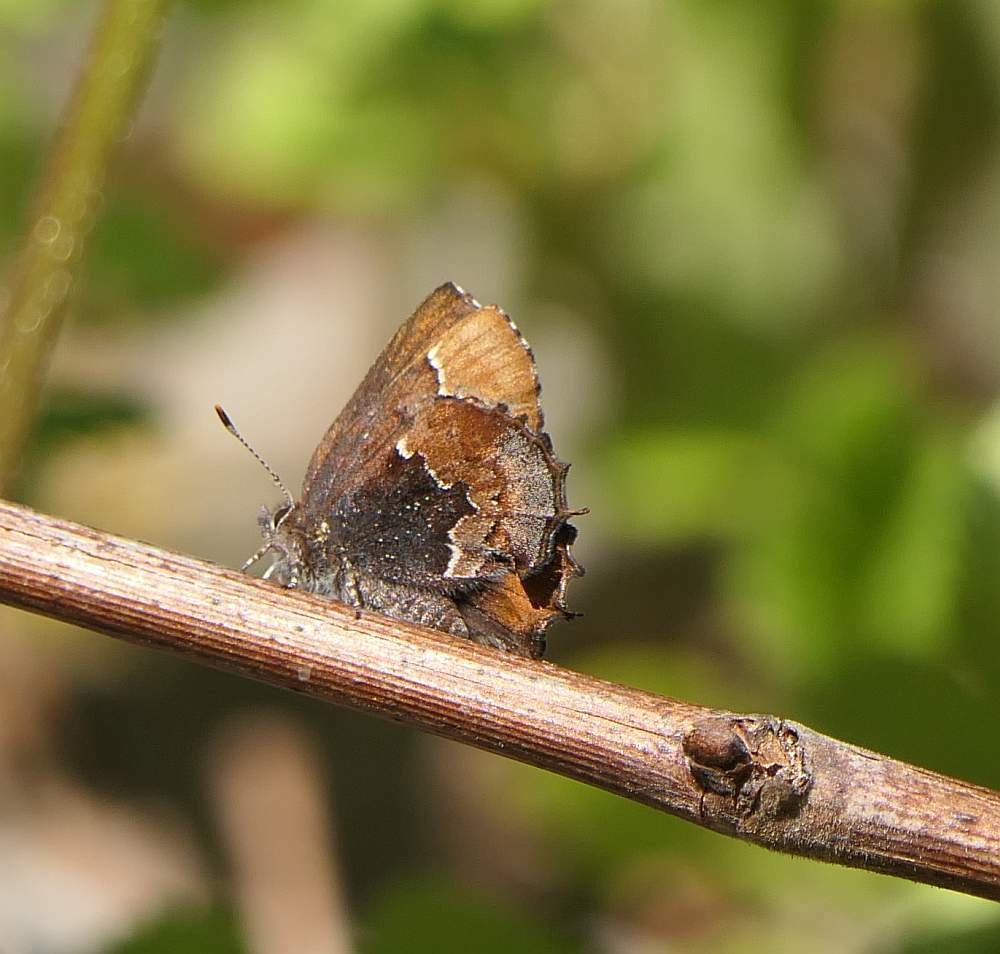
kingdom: Animalia
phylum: Arthropoda
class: Insecta
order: Lepidoptera
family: Lycaenidae
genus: Incisalia
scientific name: Incisalia henrici
